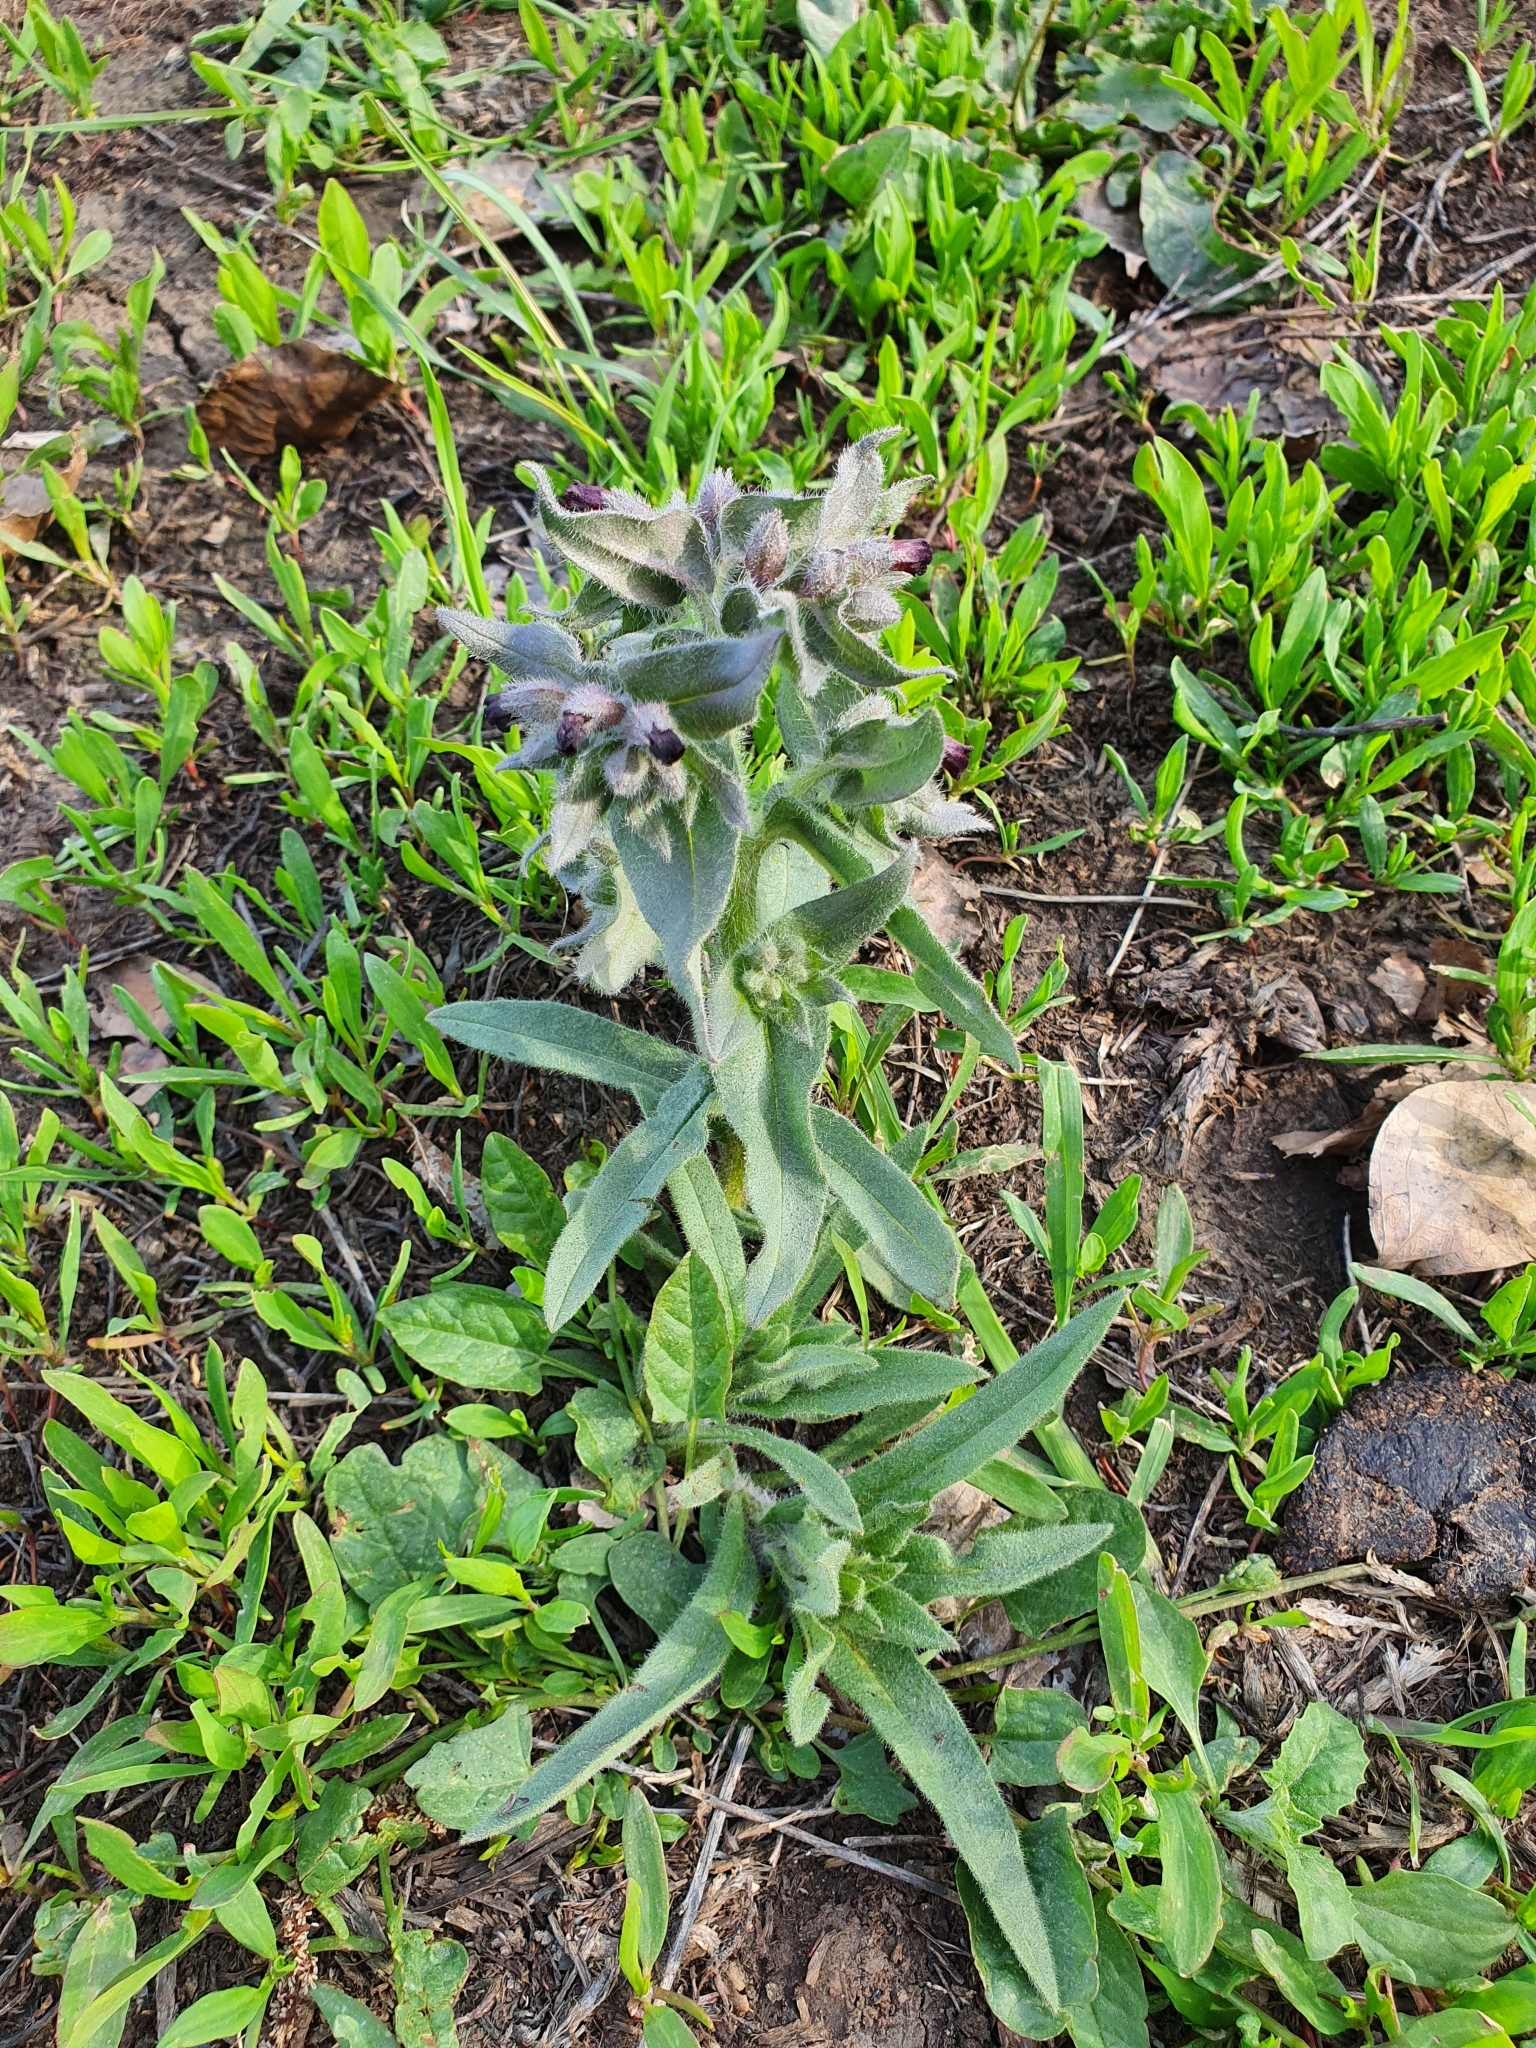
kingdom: Plantae
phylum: Tracheophyta
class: Magnoliopsida
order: Boraginales
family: Boraginaceae
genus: Nonea
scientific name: Nonea pulla
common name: Brown nonea
